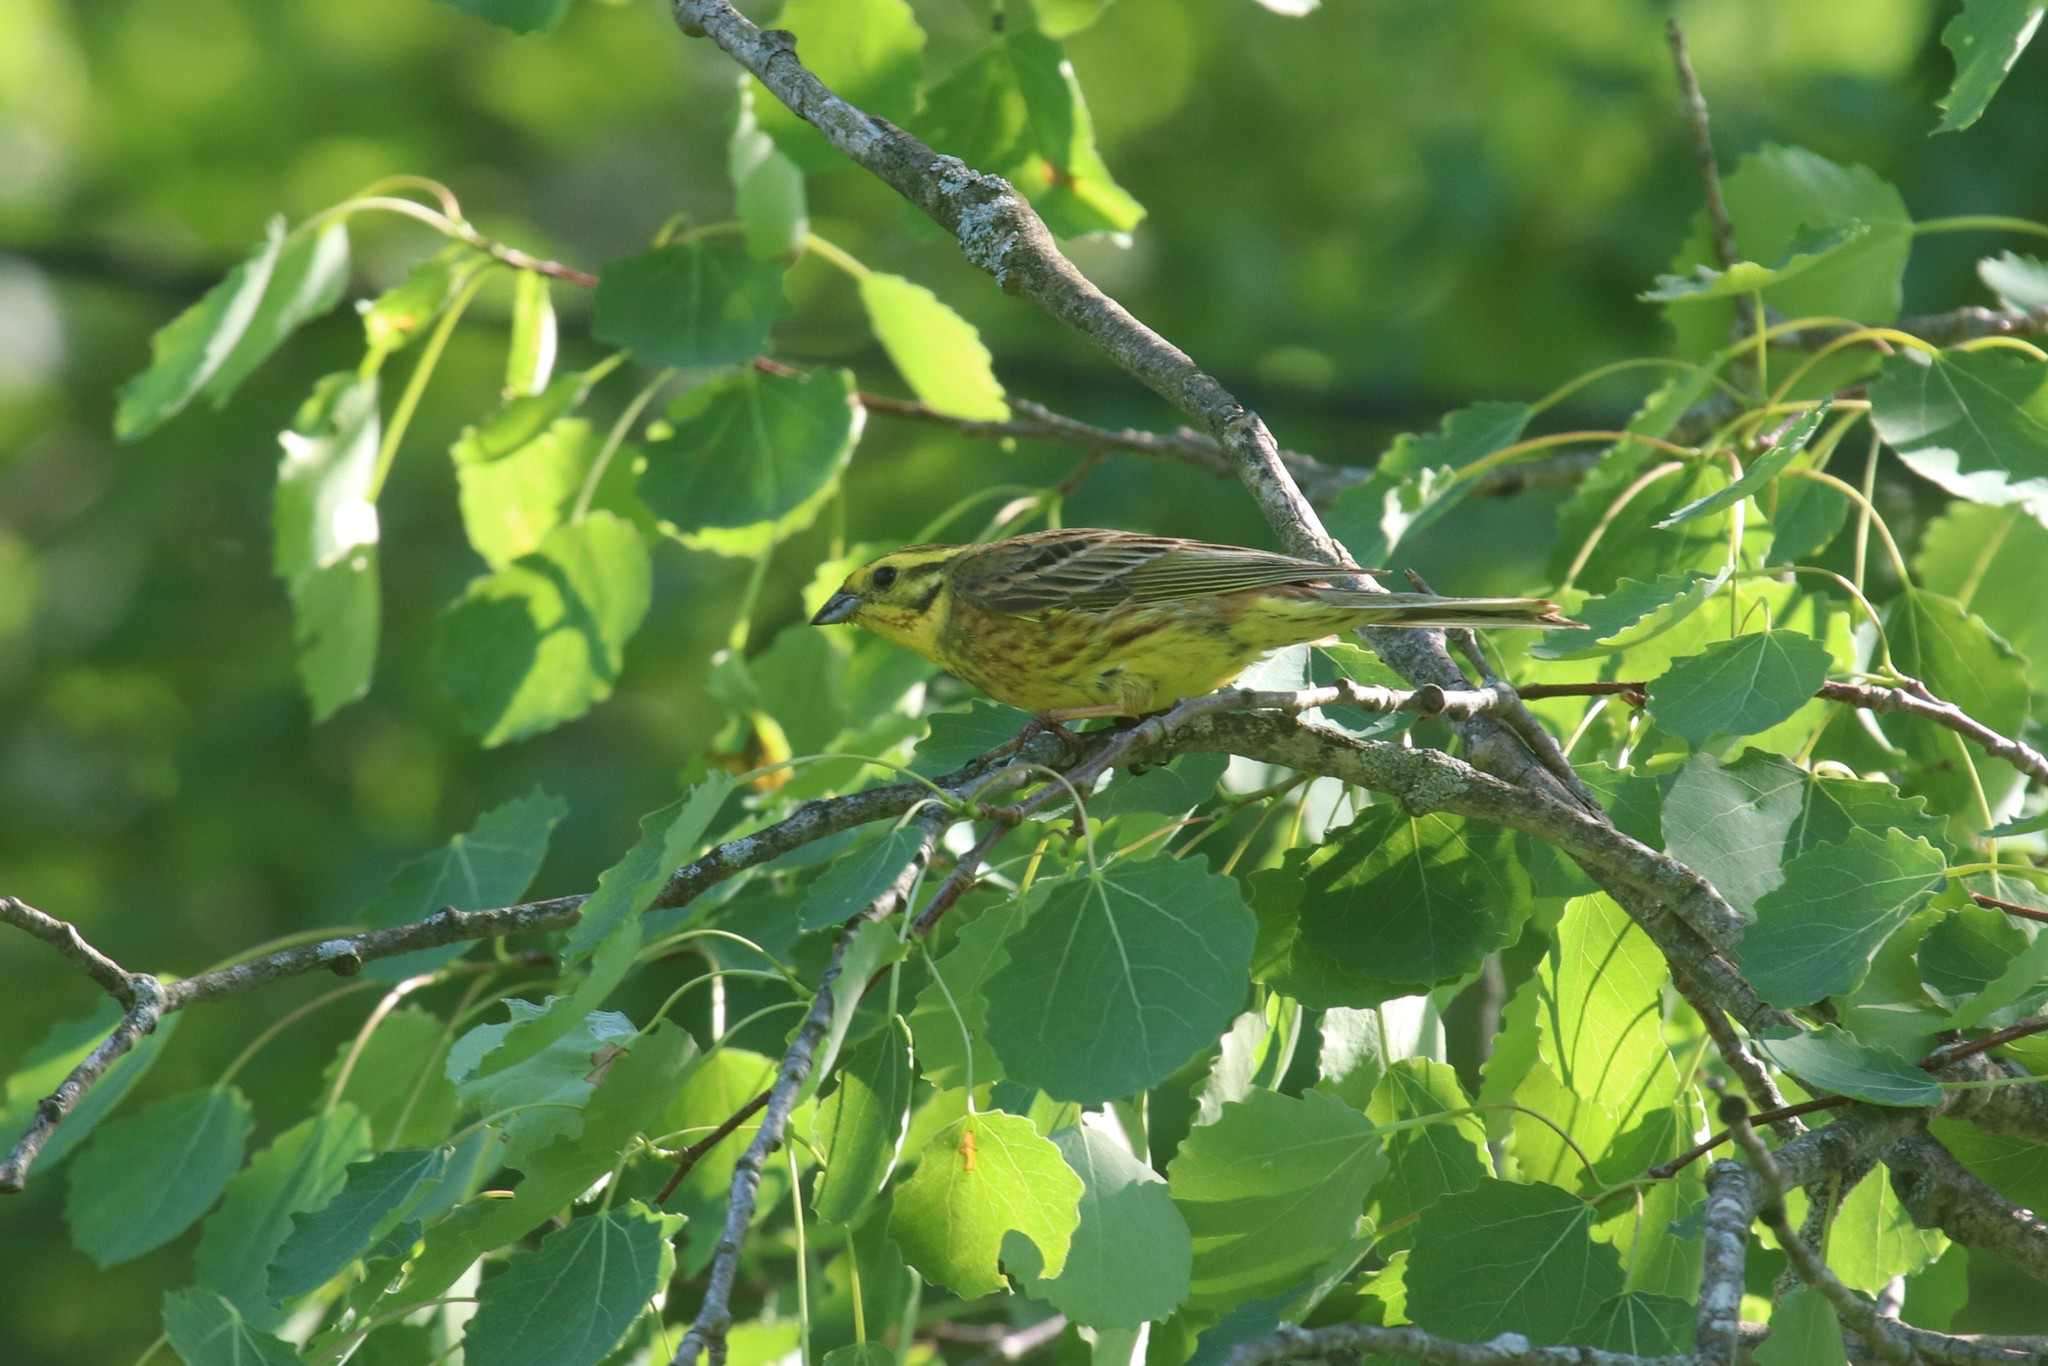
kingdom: Animalia
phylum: Chordata
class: Aves
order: Passeriformes
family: Emberizidae
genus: Emberiza
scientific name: Emberiza citrinella
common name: Yellowhammer
